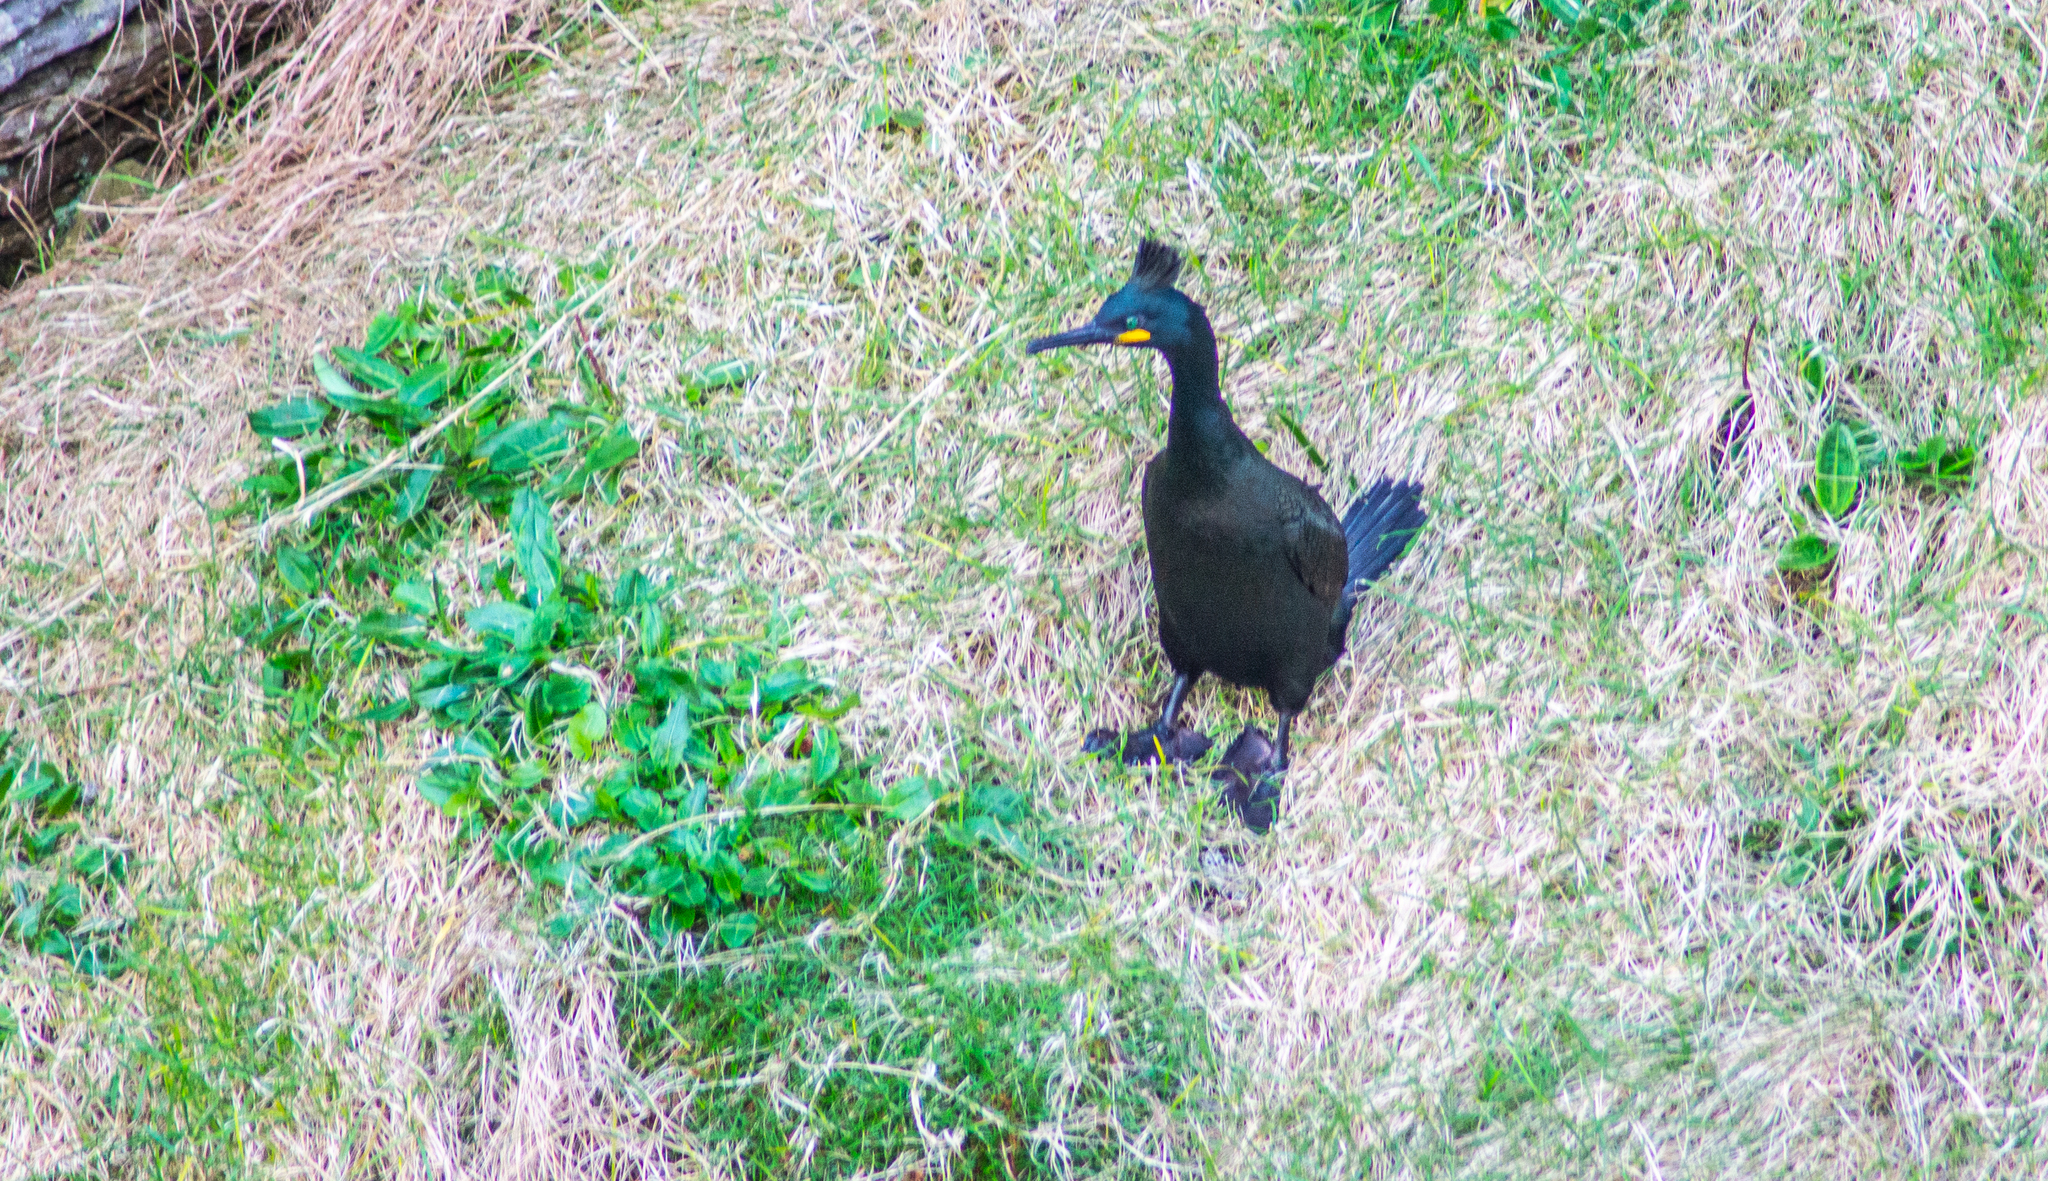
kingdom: Animalia
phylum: Chordata
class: Aves
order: Suliformes
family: Phalacrocoracidae
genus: Phalacrocorax
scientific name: Phalacrocorax aristotelis
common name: European shag
